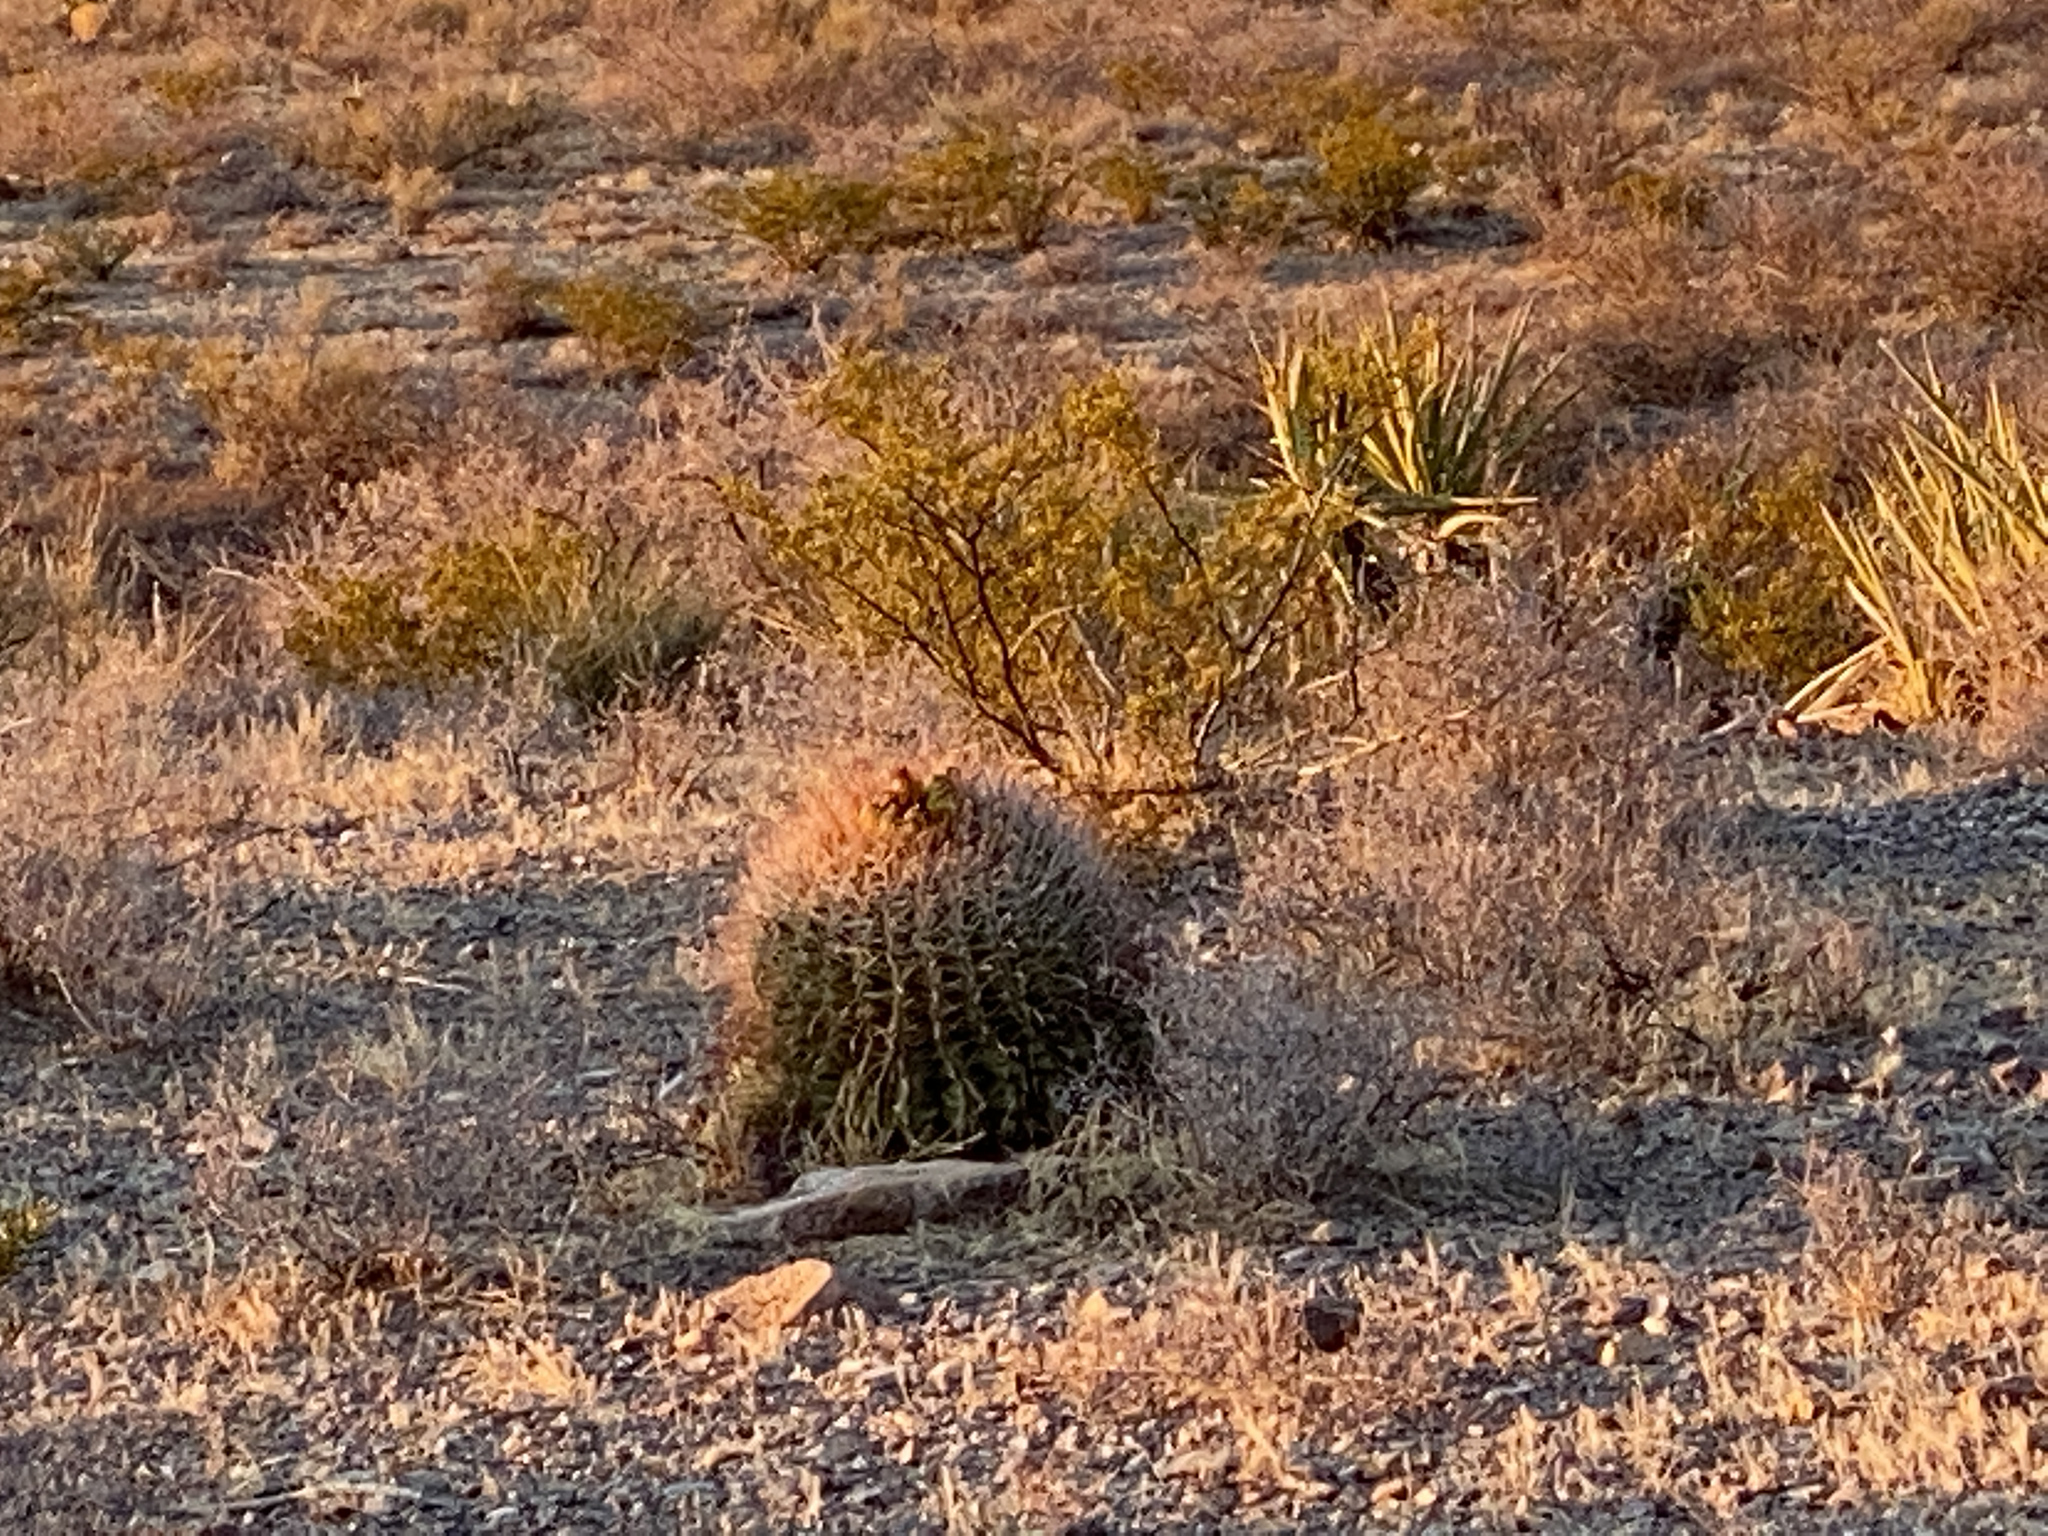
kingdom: Plantae
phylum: Tracheophyta
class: Magnoliopsida
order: Caryophyllales
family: Cactaceae
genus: Ferocactus
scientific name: Ferocactus wislizeni
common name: Candy barrel cactus
